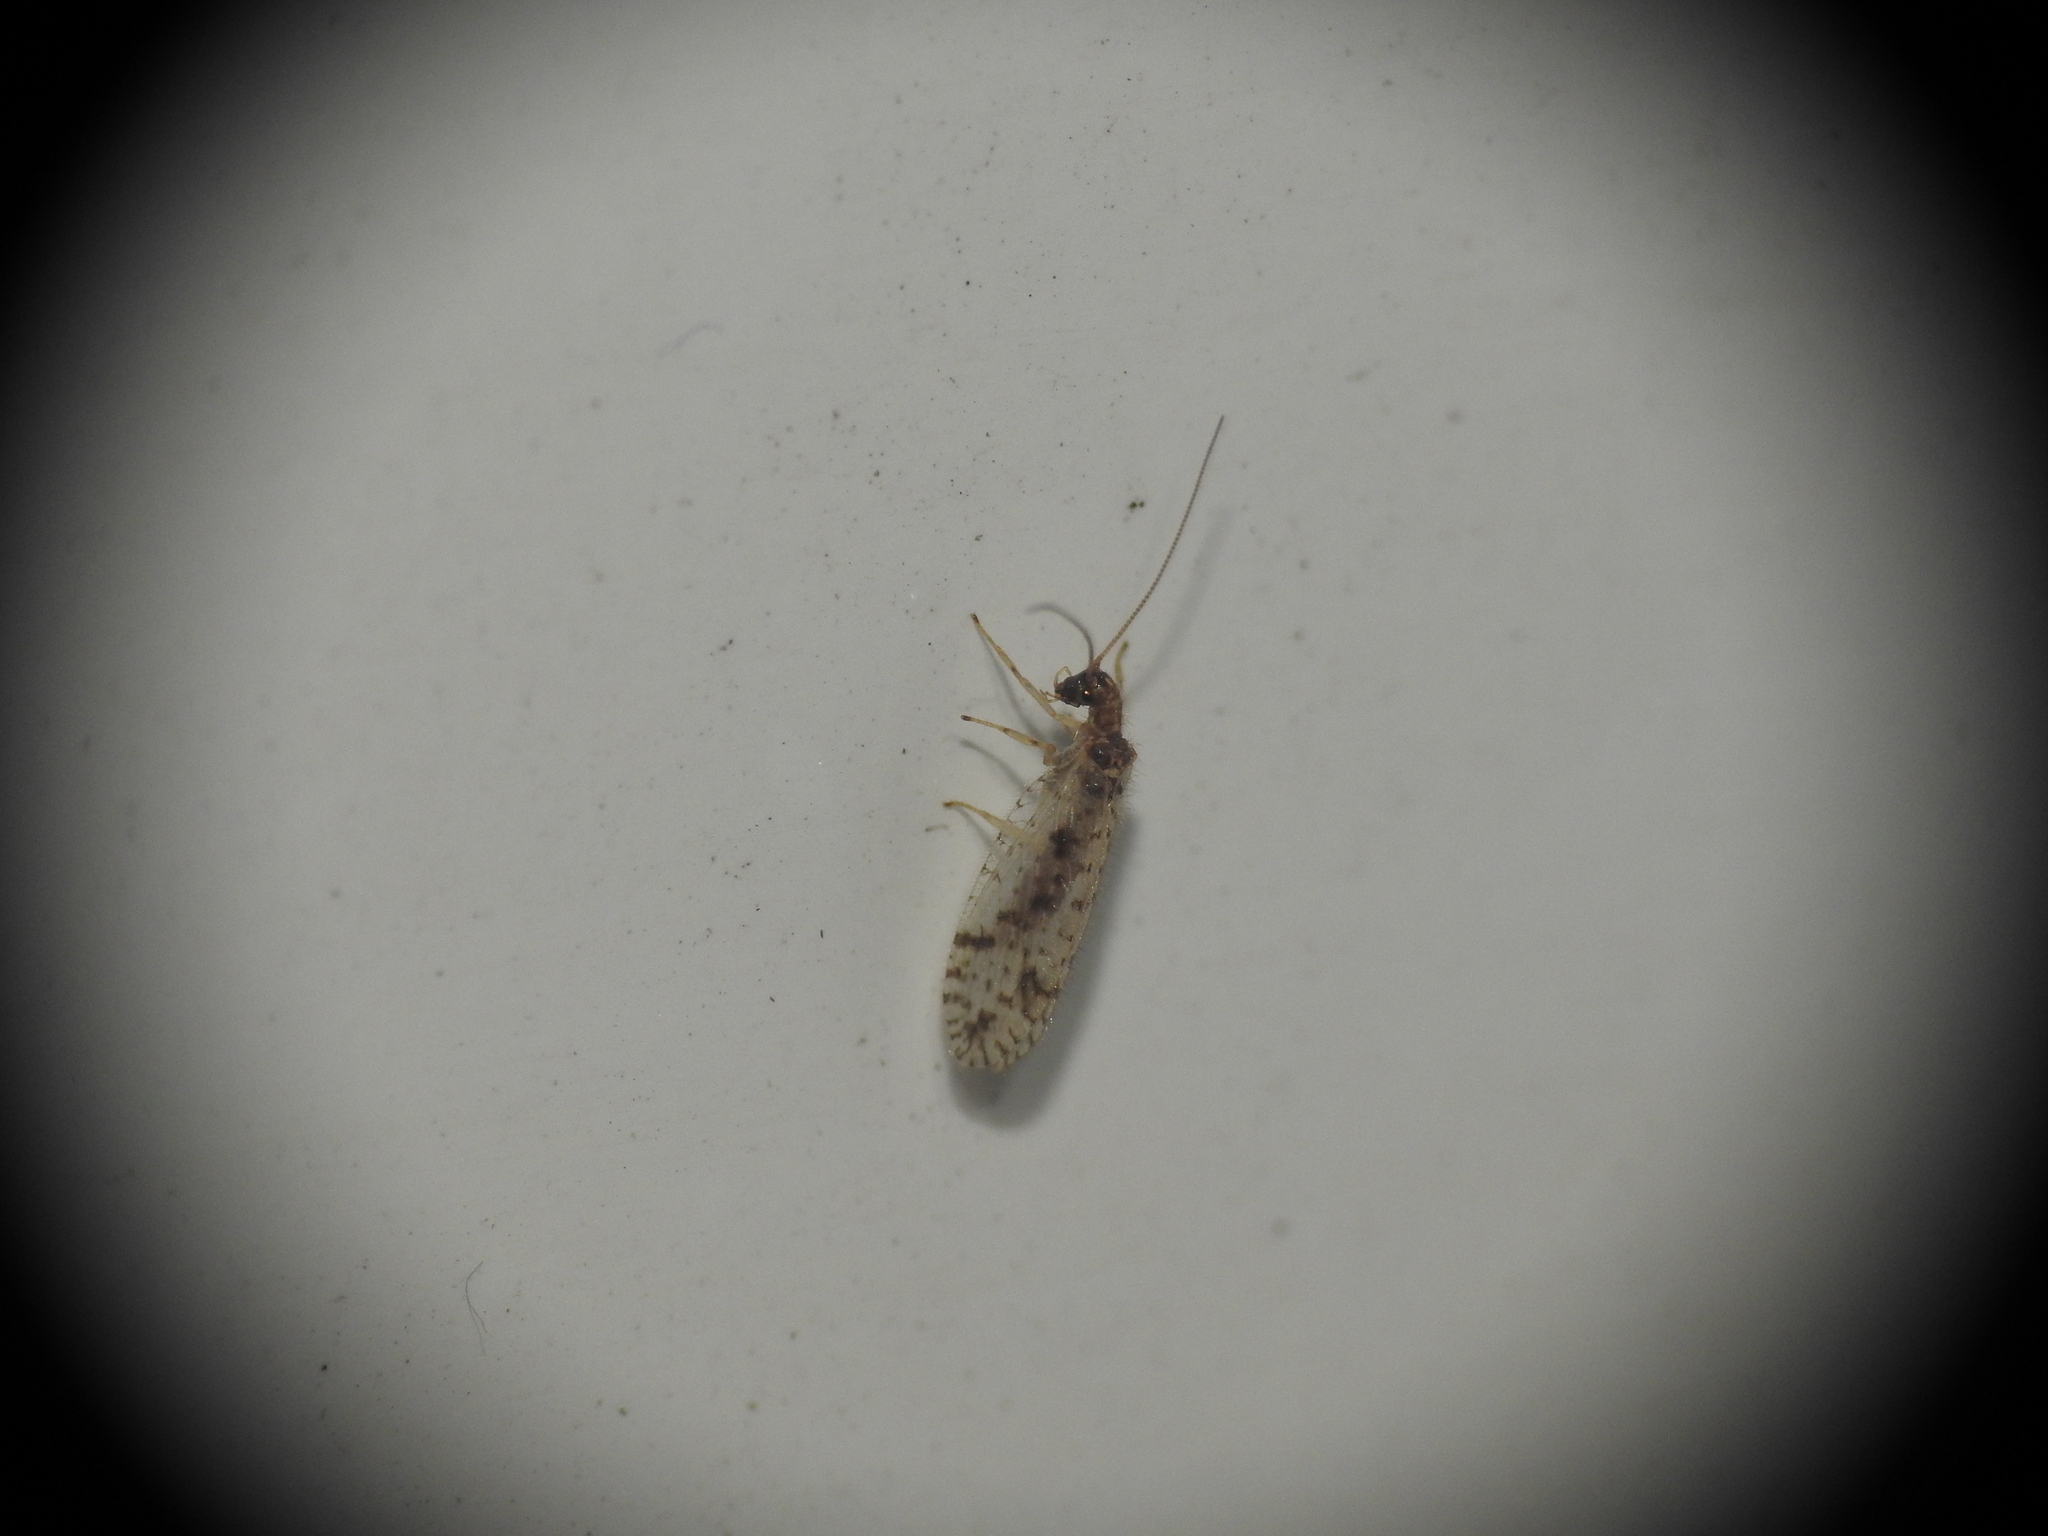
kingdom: Animalia
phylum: Arthropoda
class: Insecta
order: Neuroptera
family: Hemerobiidae
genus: Micromus
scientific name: Micromus variegatus
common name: Brown lacewing
